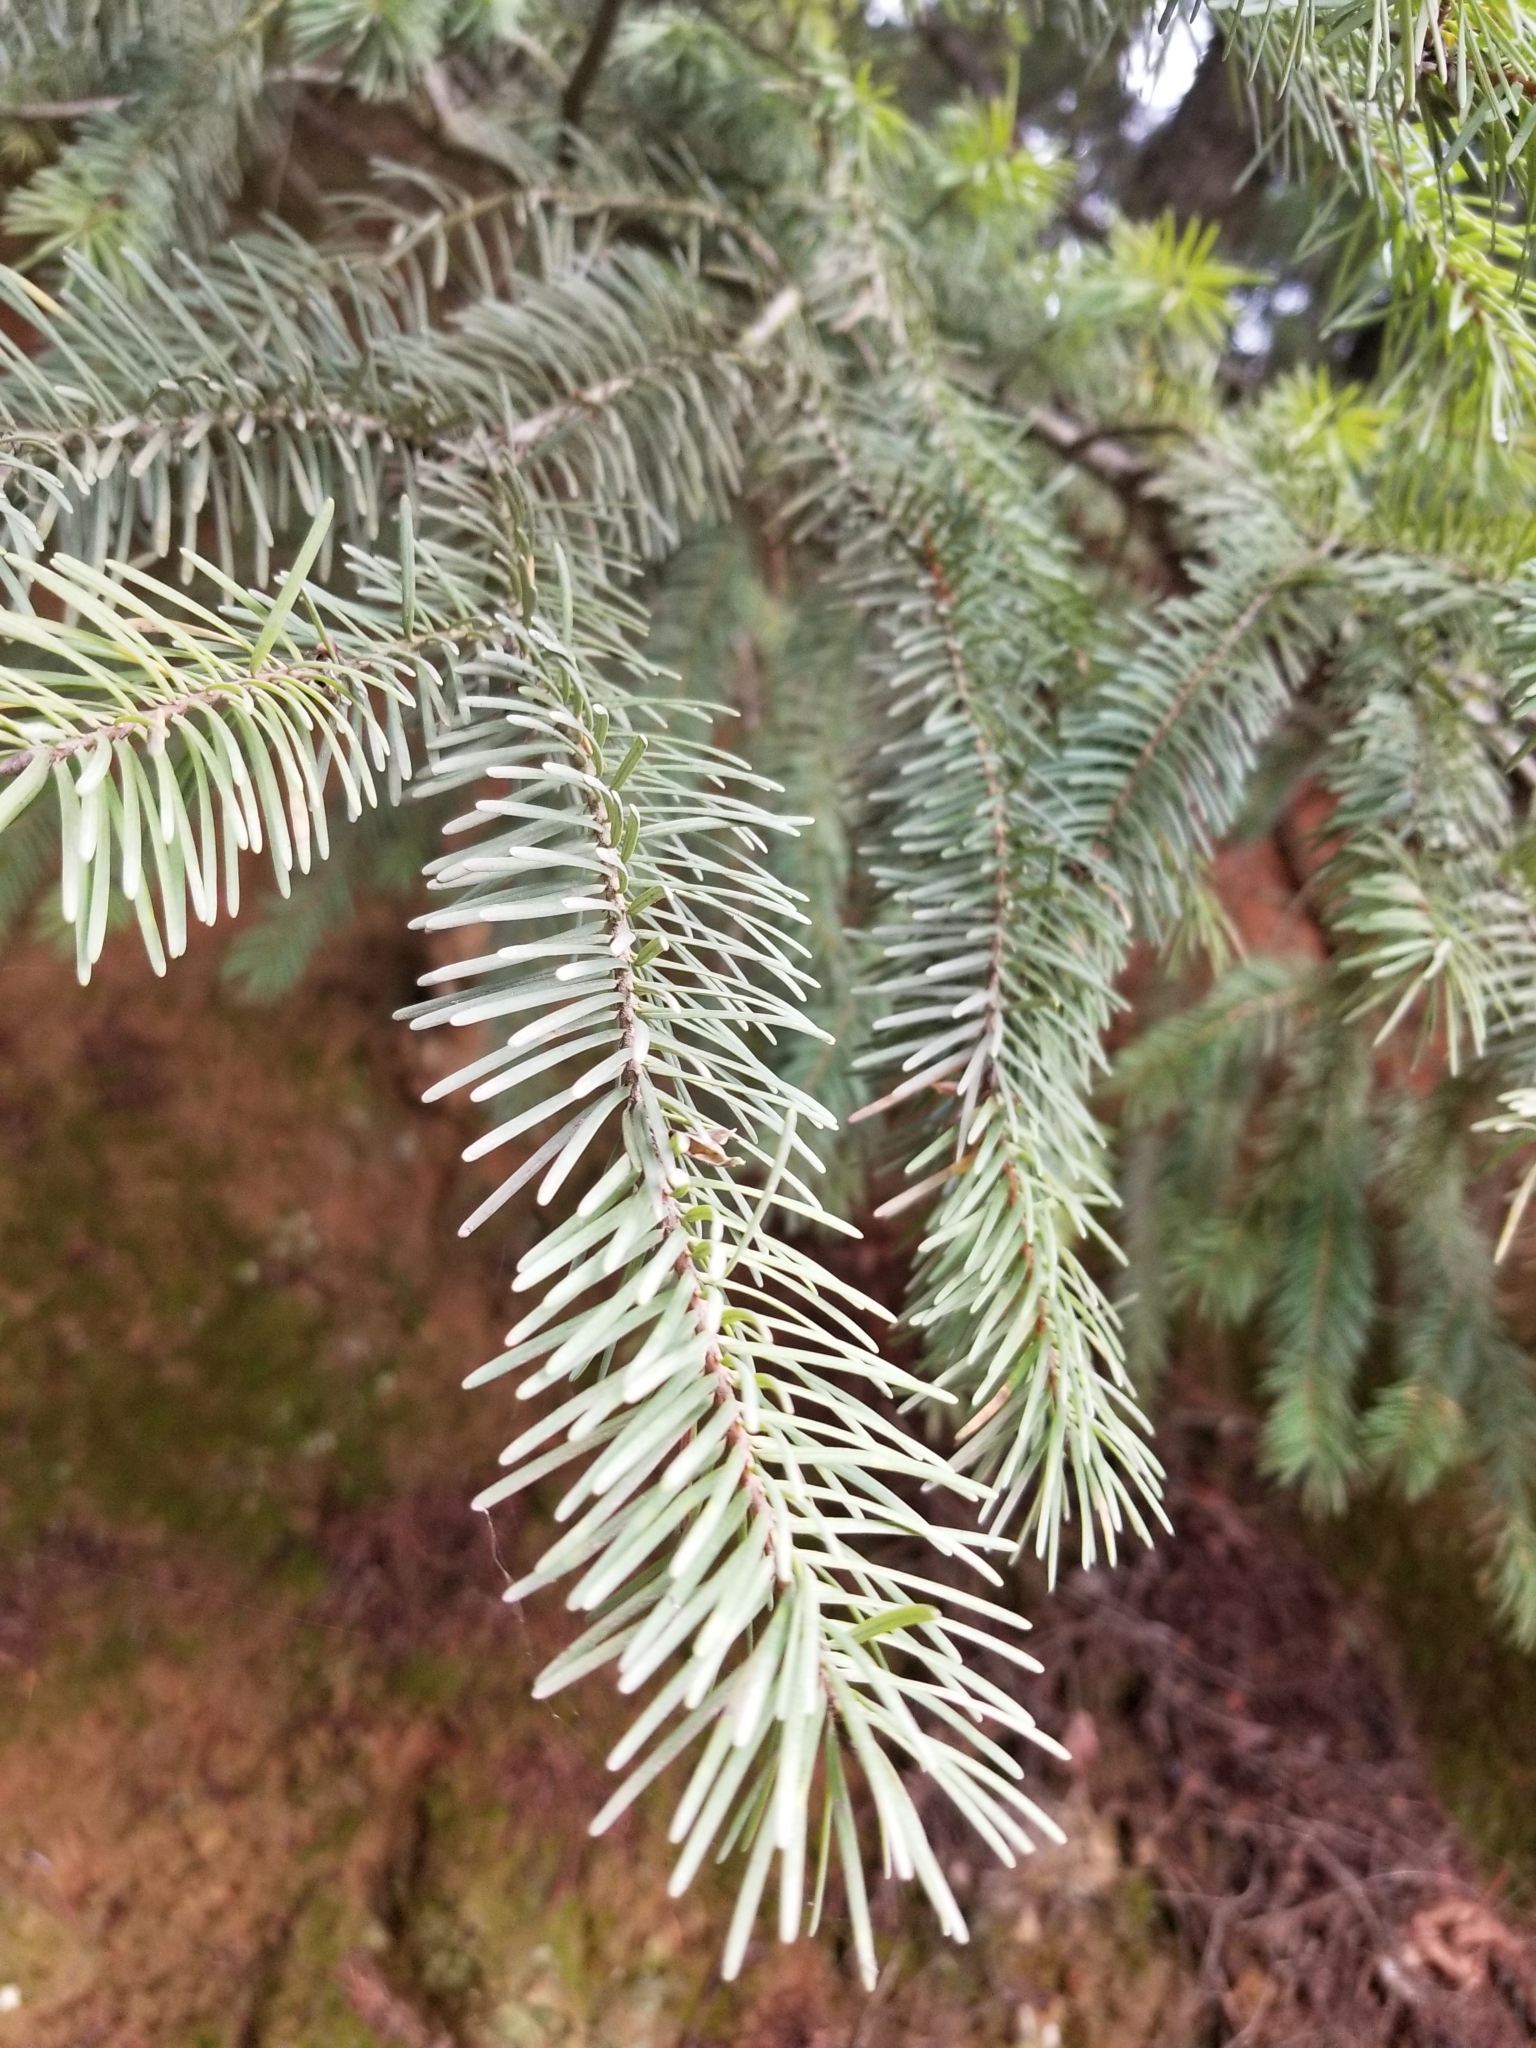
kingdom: Plantae
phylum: Tracheophyta
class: Pinopsida
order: Pinales
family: Pinaceae
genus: Pseudotsuga
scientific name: Pseudotsuga menziesii
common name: Douglas fir
